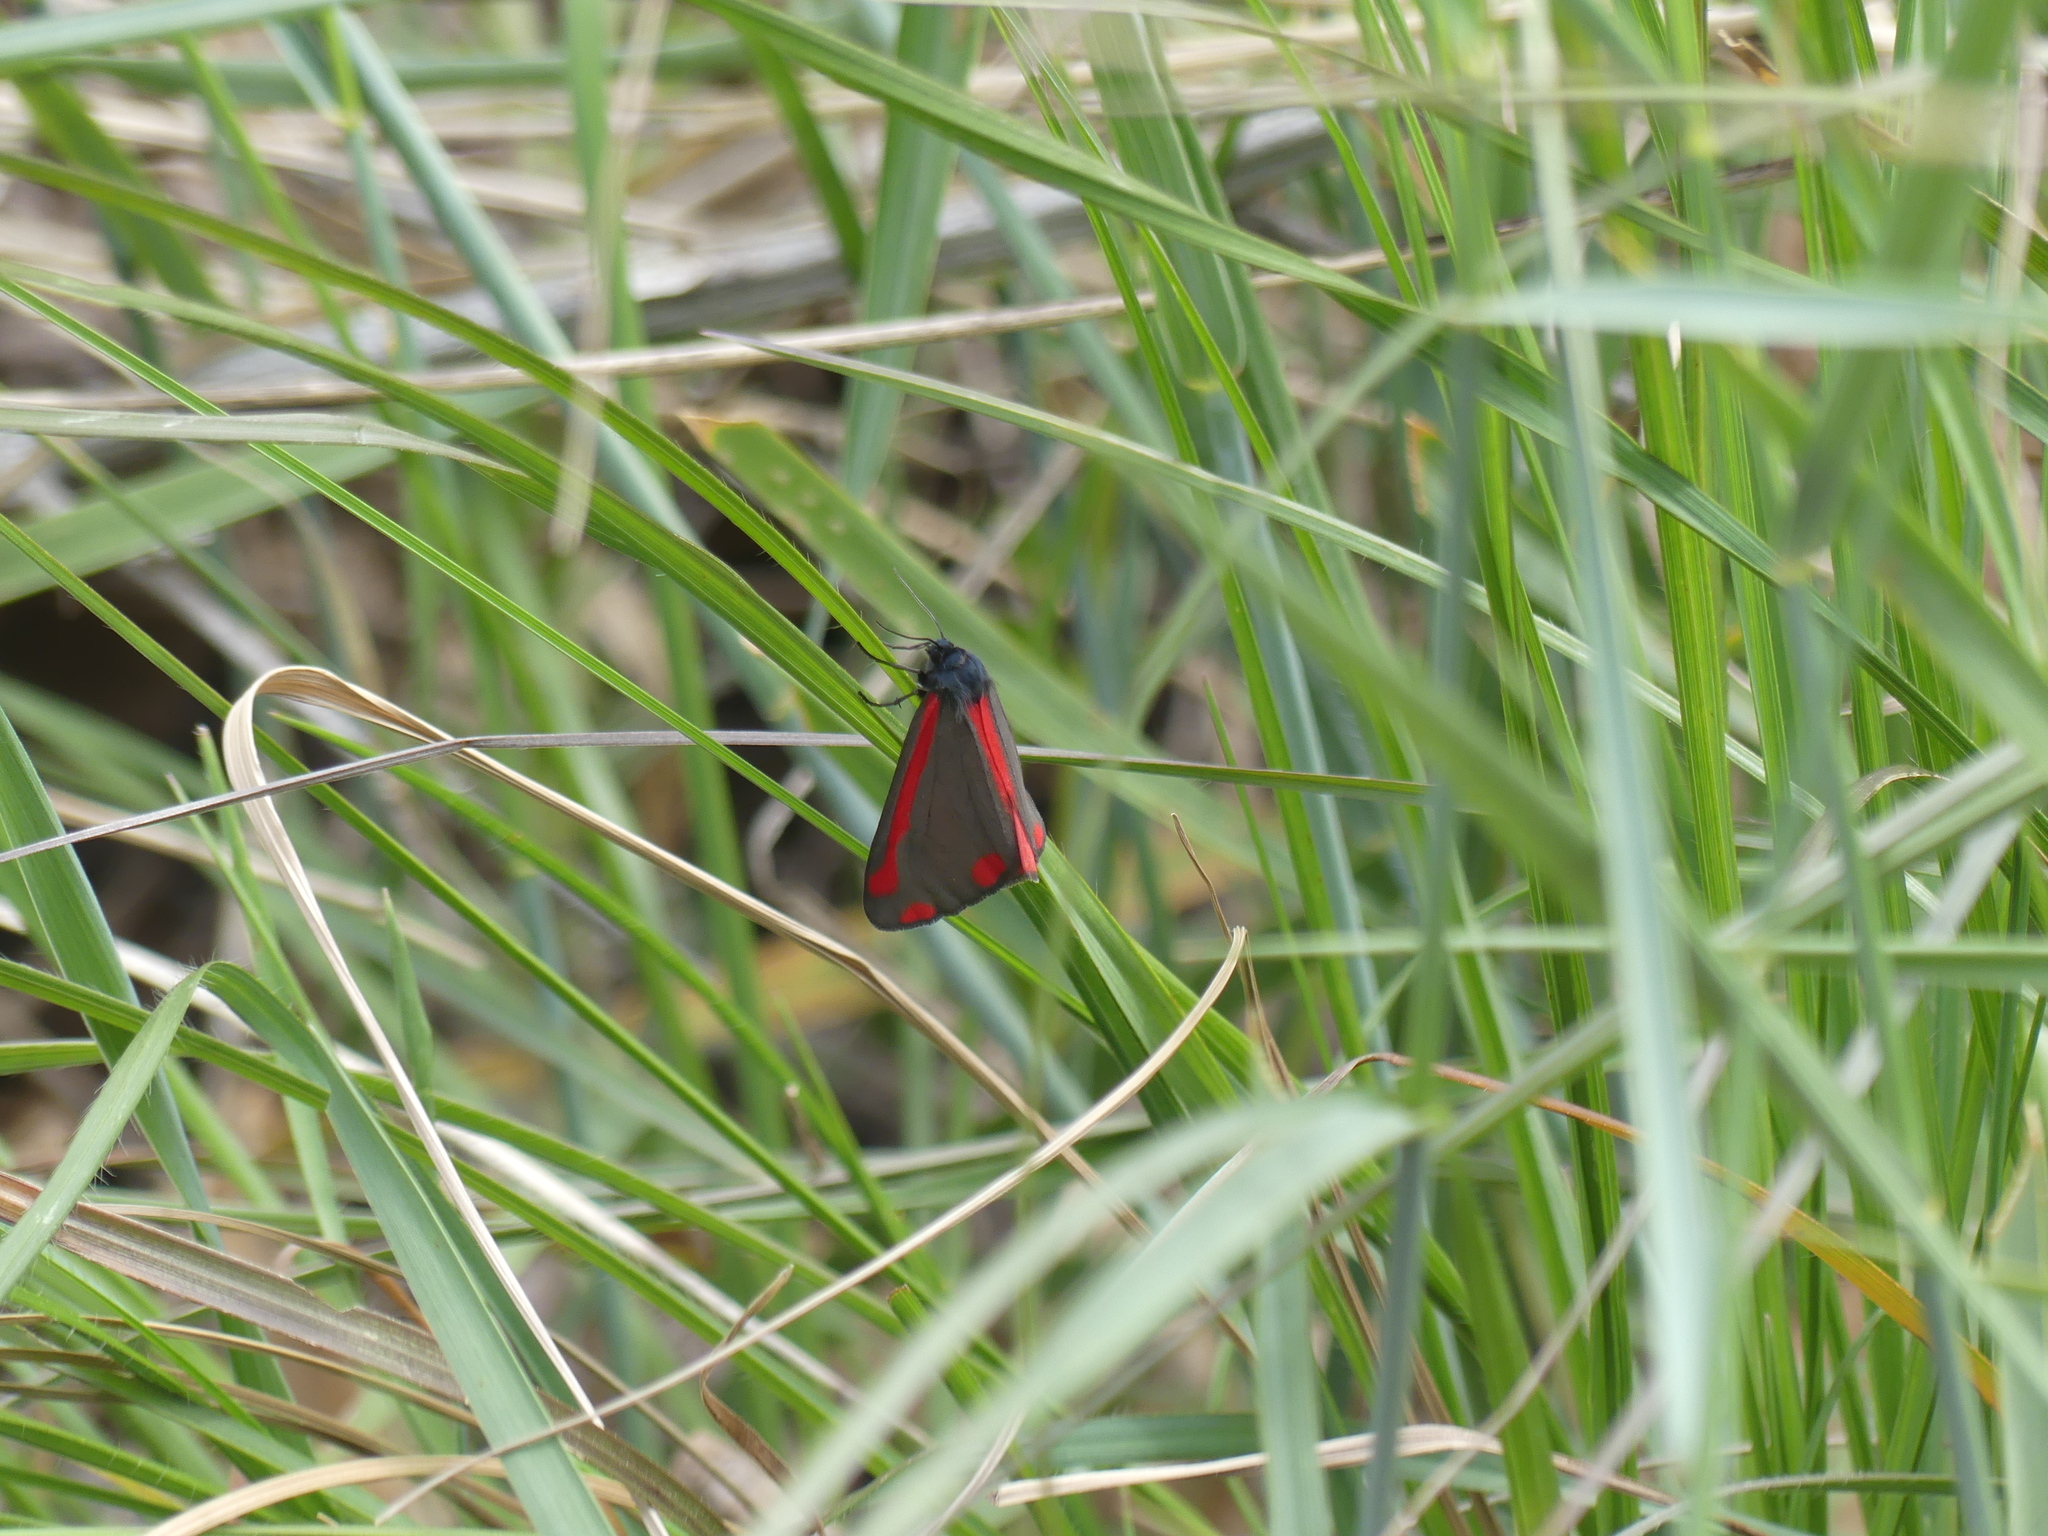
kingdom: Animalia
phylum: Arthropoda
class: Insecta
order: Lepidoptera
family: Erebidae
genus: Tyria
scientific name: Tyria jacobaeae
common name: Cinnabar
